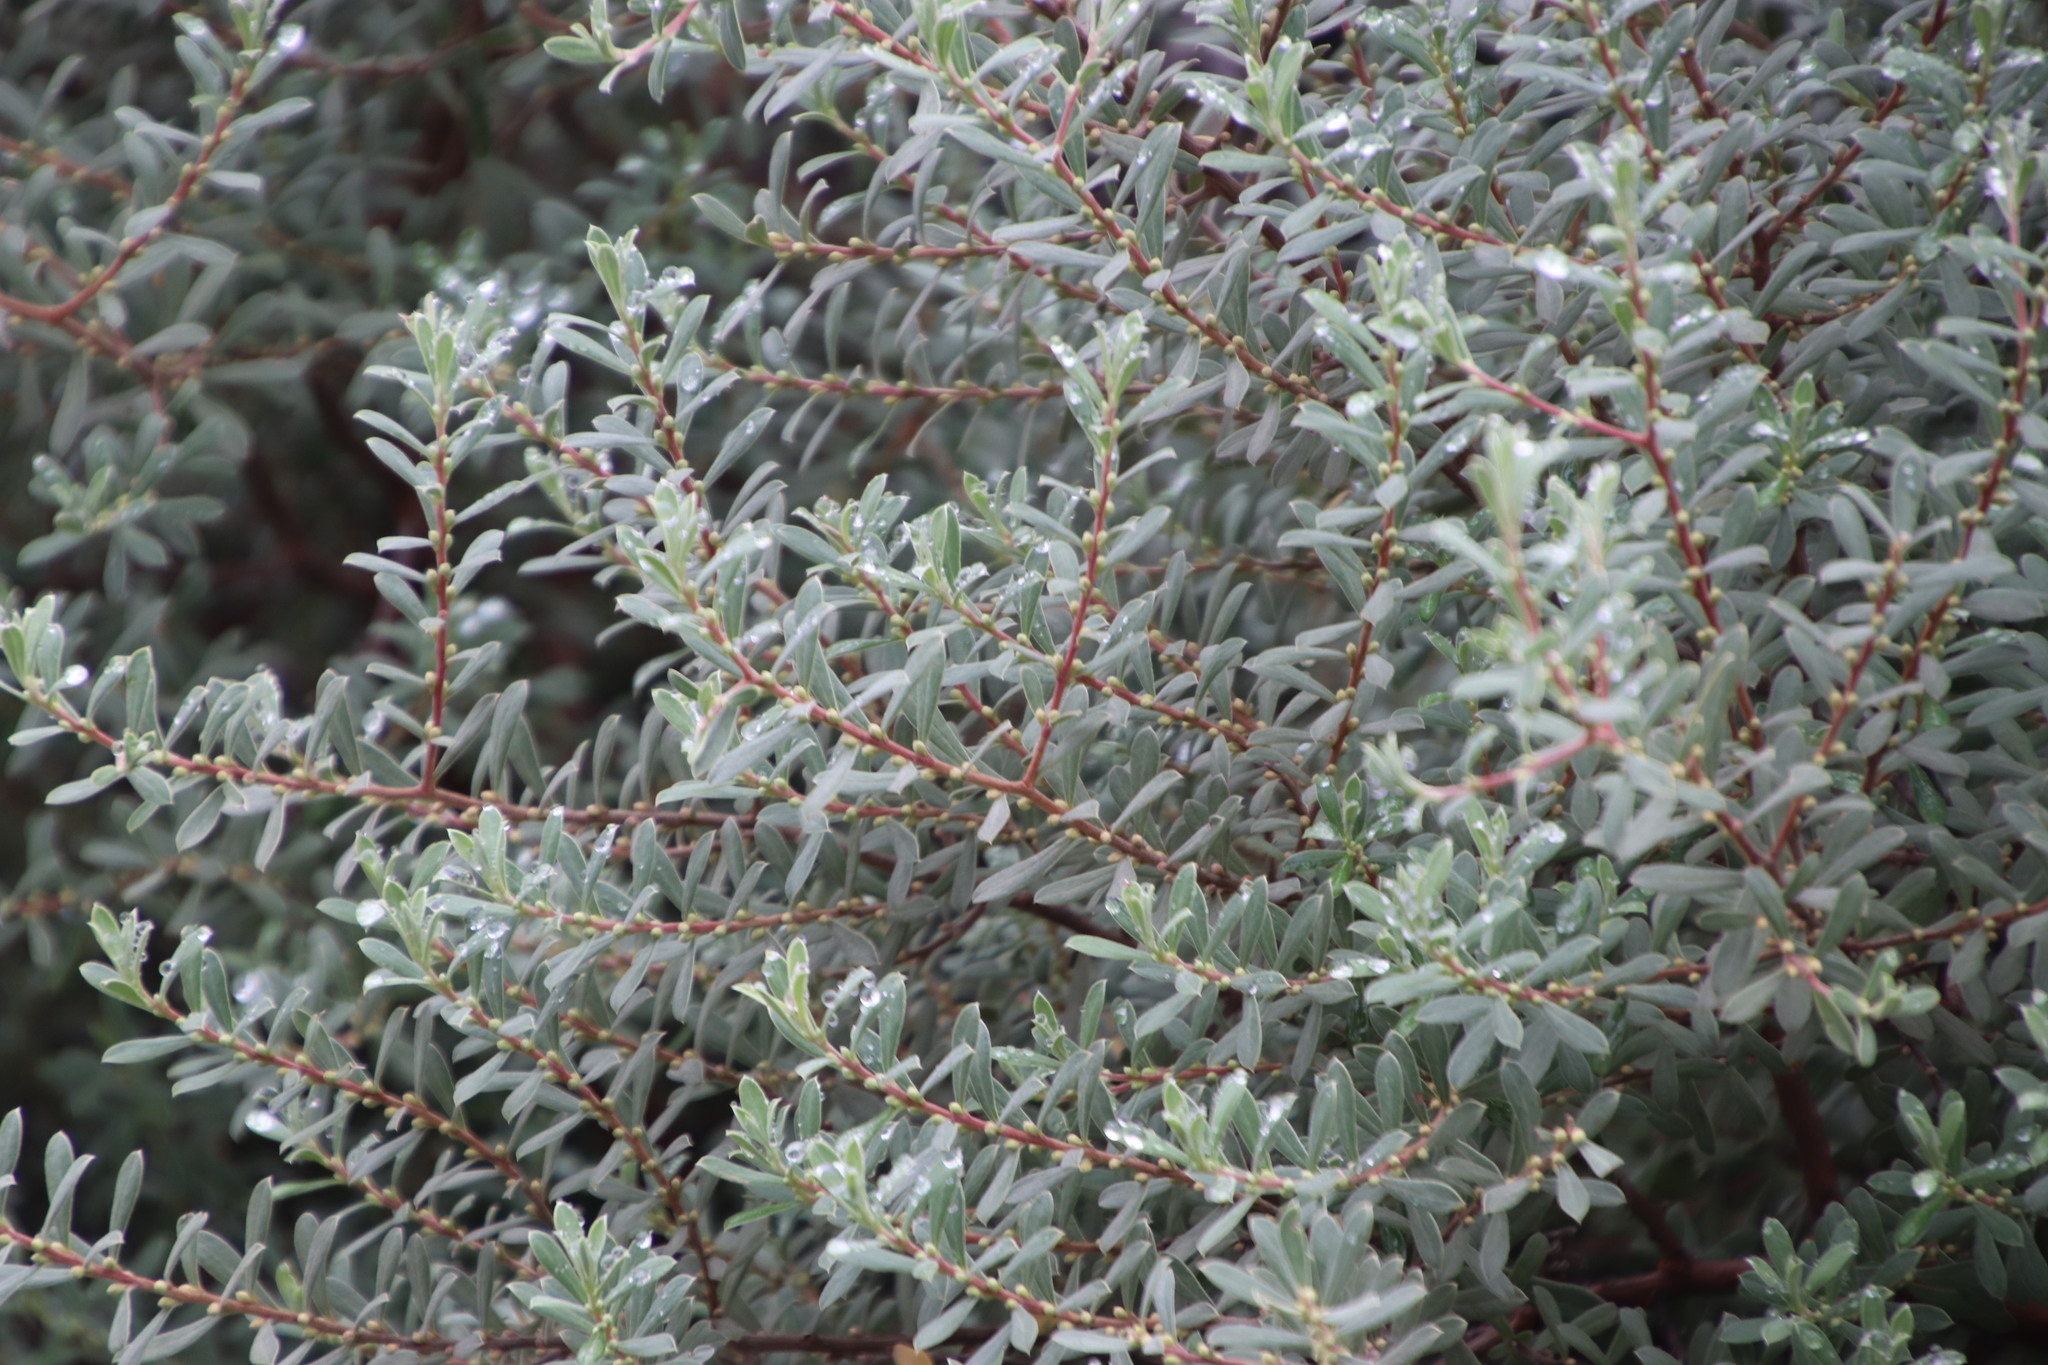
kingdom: Plantae
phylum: Tracheophyta
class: Magnoliopsida
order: Ericales
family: Ebenaceae
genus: Diospyros
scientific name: Diospyros pubescens
